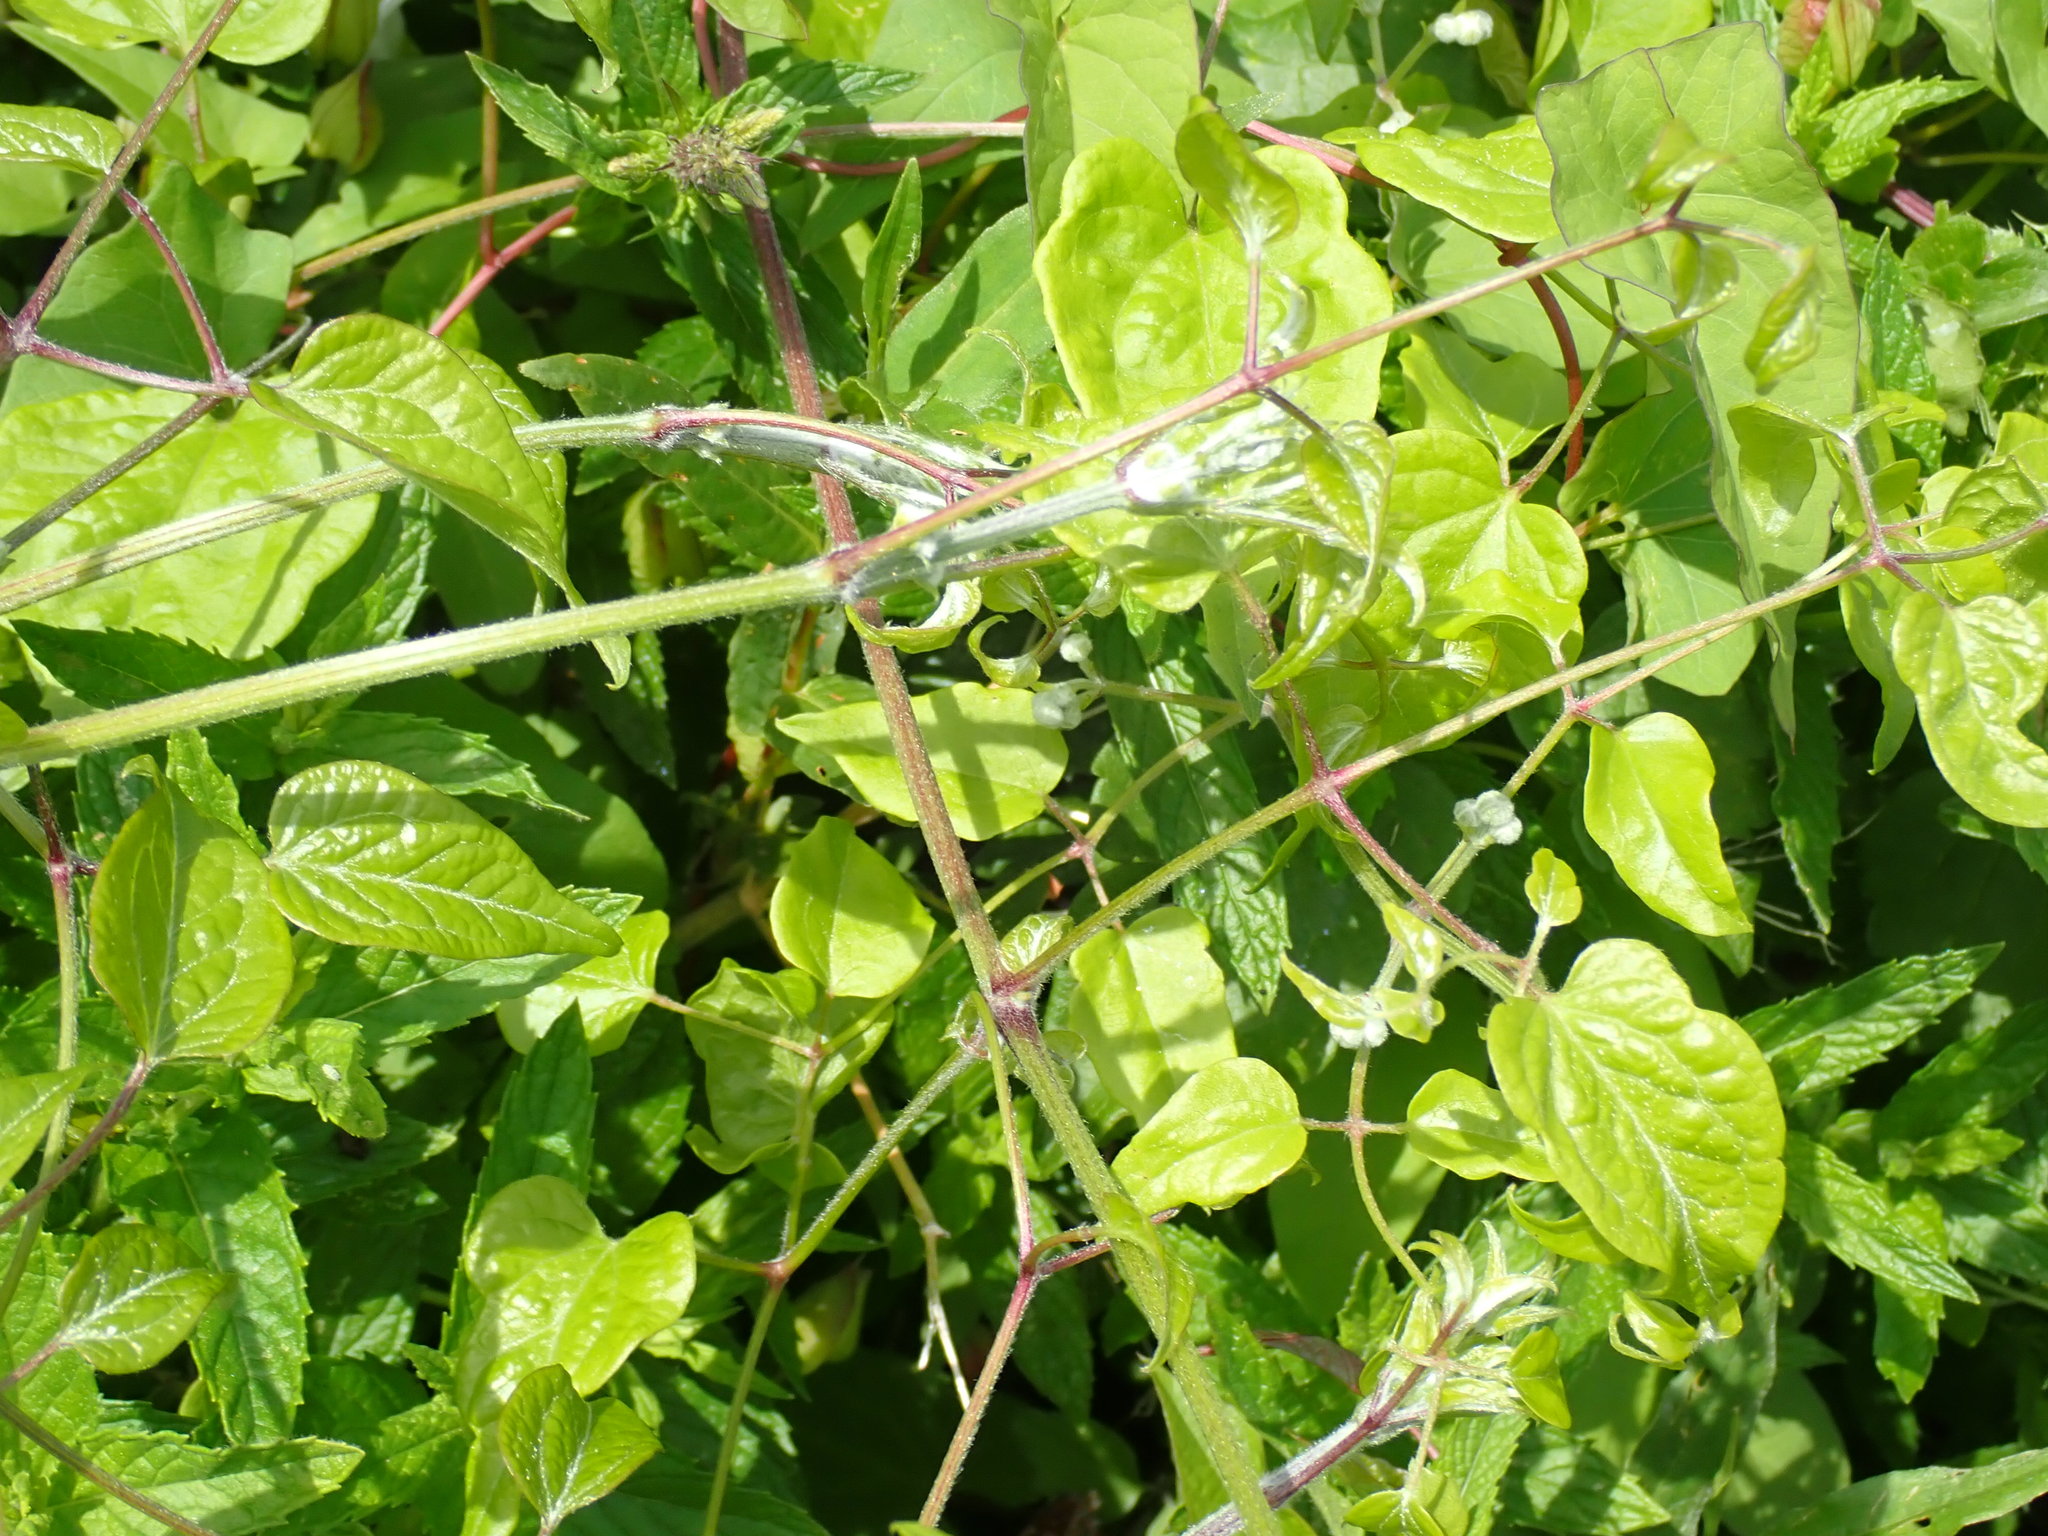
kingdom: Plantae
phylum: Tracheophyta
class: Magnoliopsida
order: Ranunculales
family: Ranunculaceae
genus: Clematis
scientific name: Clematis vitalba
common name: Evergreen clematis
